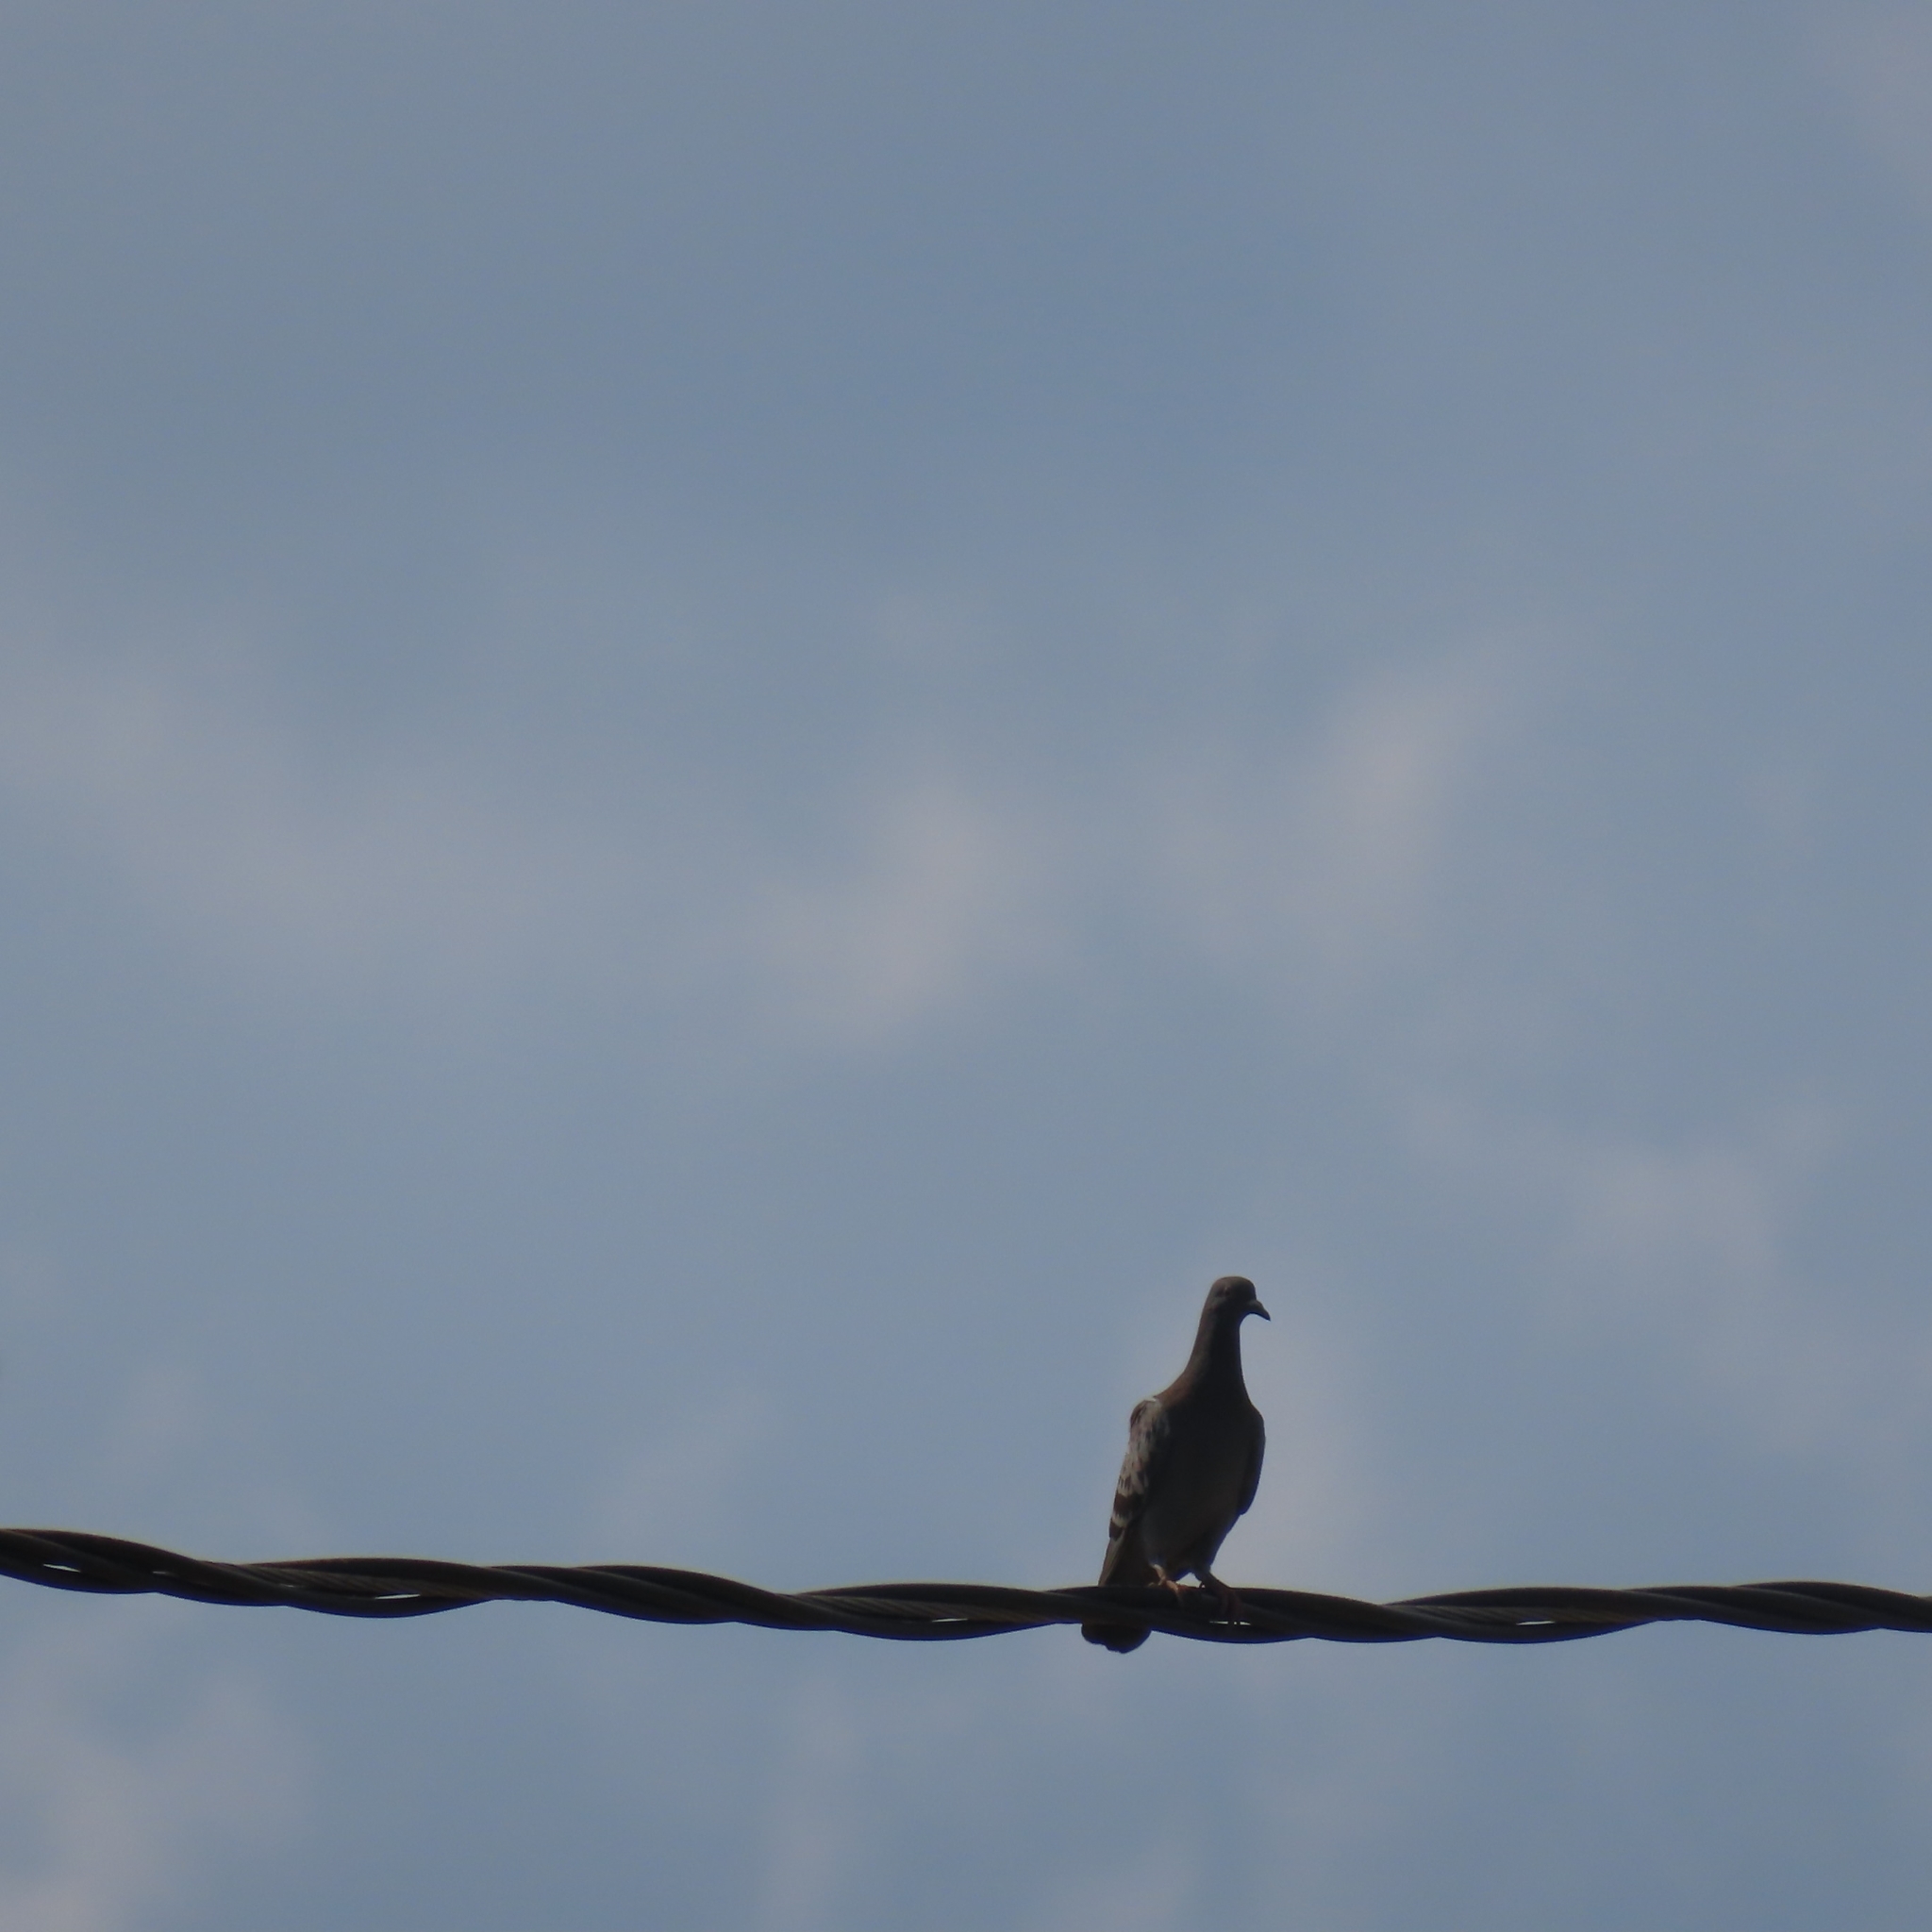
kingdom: Animalia
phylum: Chordata
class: Aves
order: Columbiformes
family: Columbidae
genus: Columba
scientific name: Columba livia
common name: Rock pigeon
